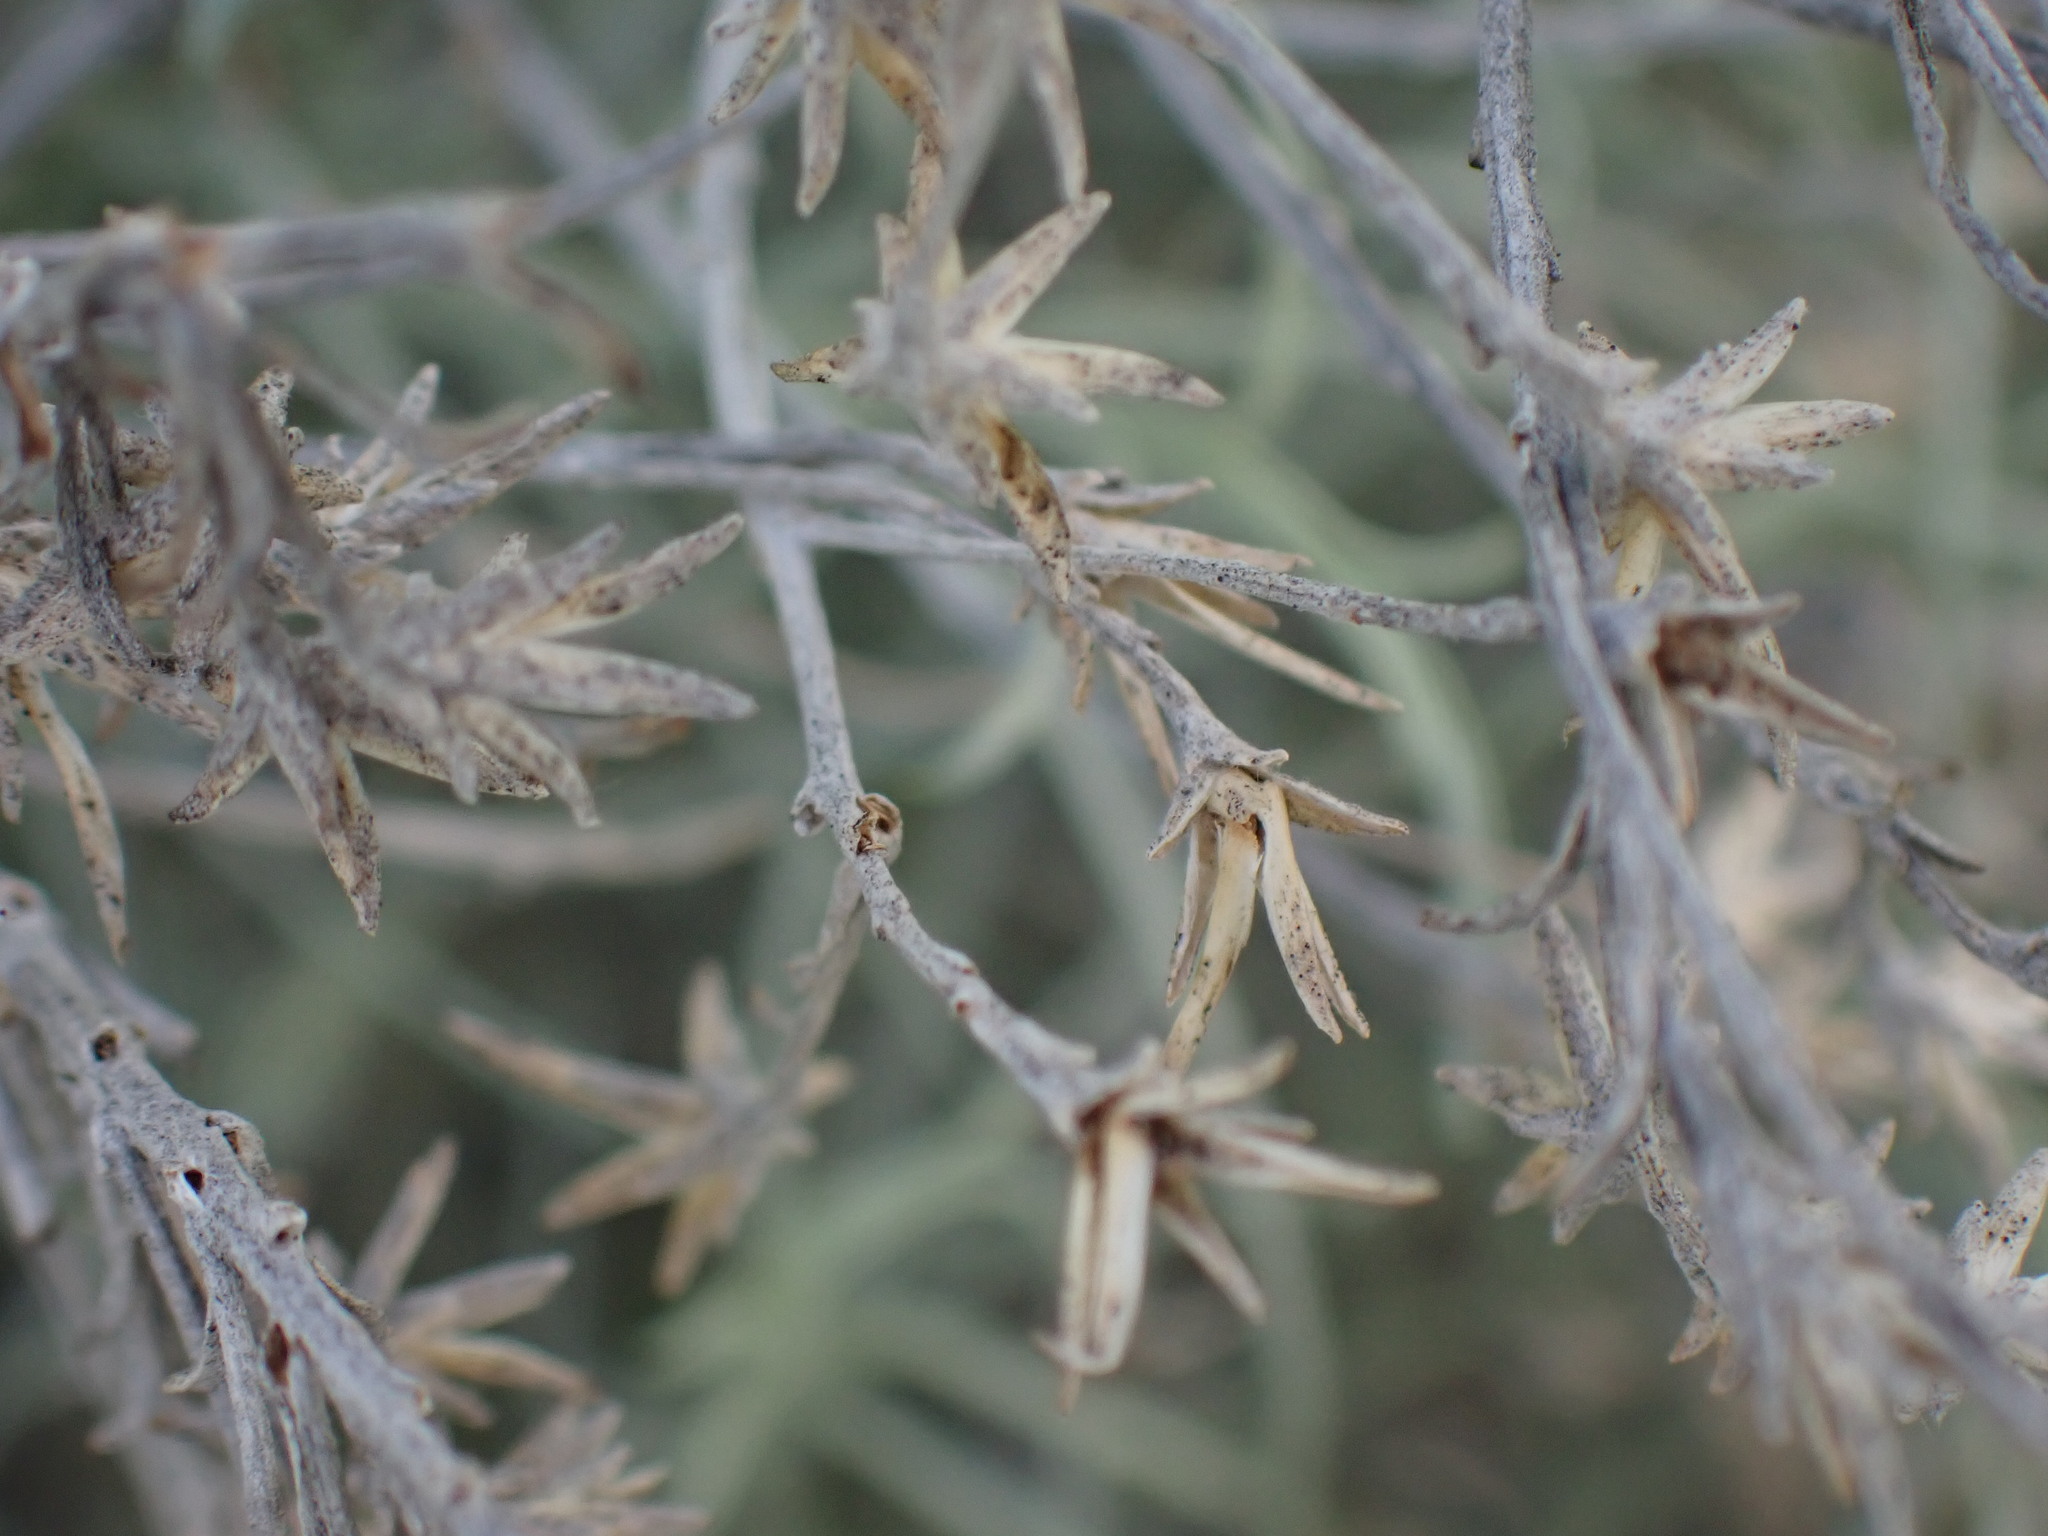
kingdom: Plantae
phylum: Tracheophyta
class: Magnoliopsida
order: Asterales
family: Asteraceae
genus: Ericameria
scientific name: Ericameria nauseosa
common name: Rubber rabbitbrush
